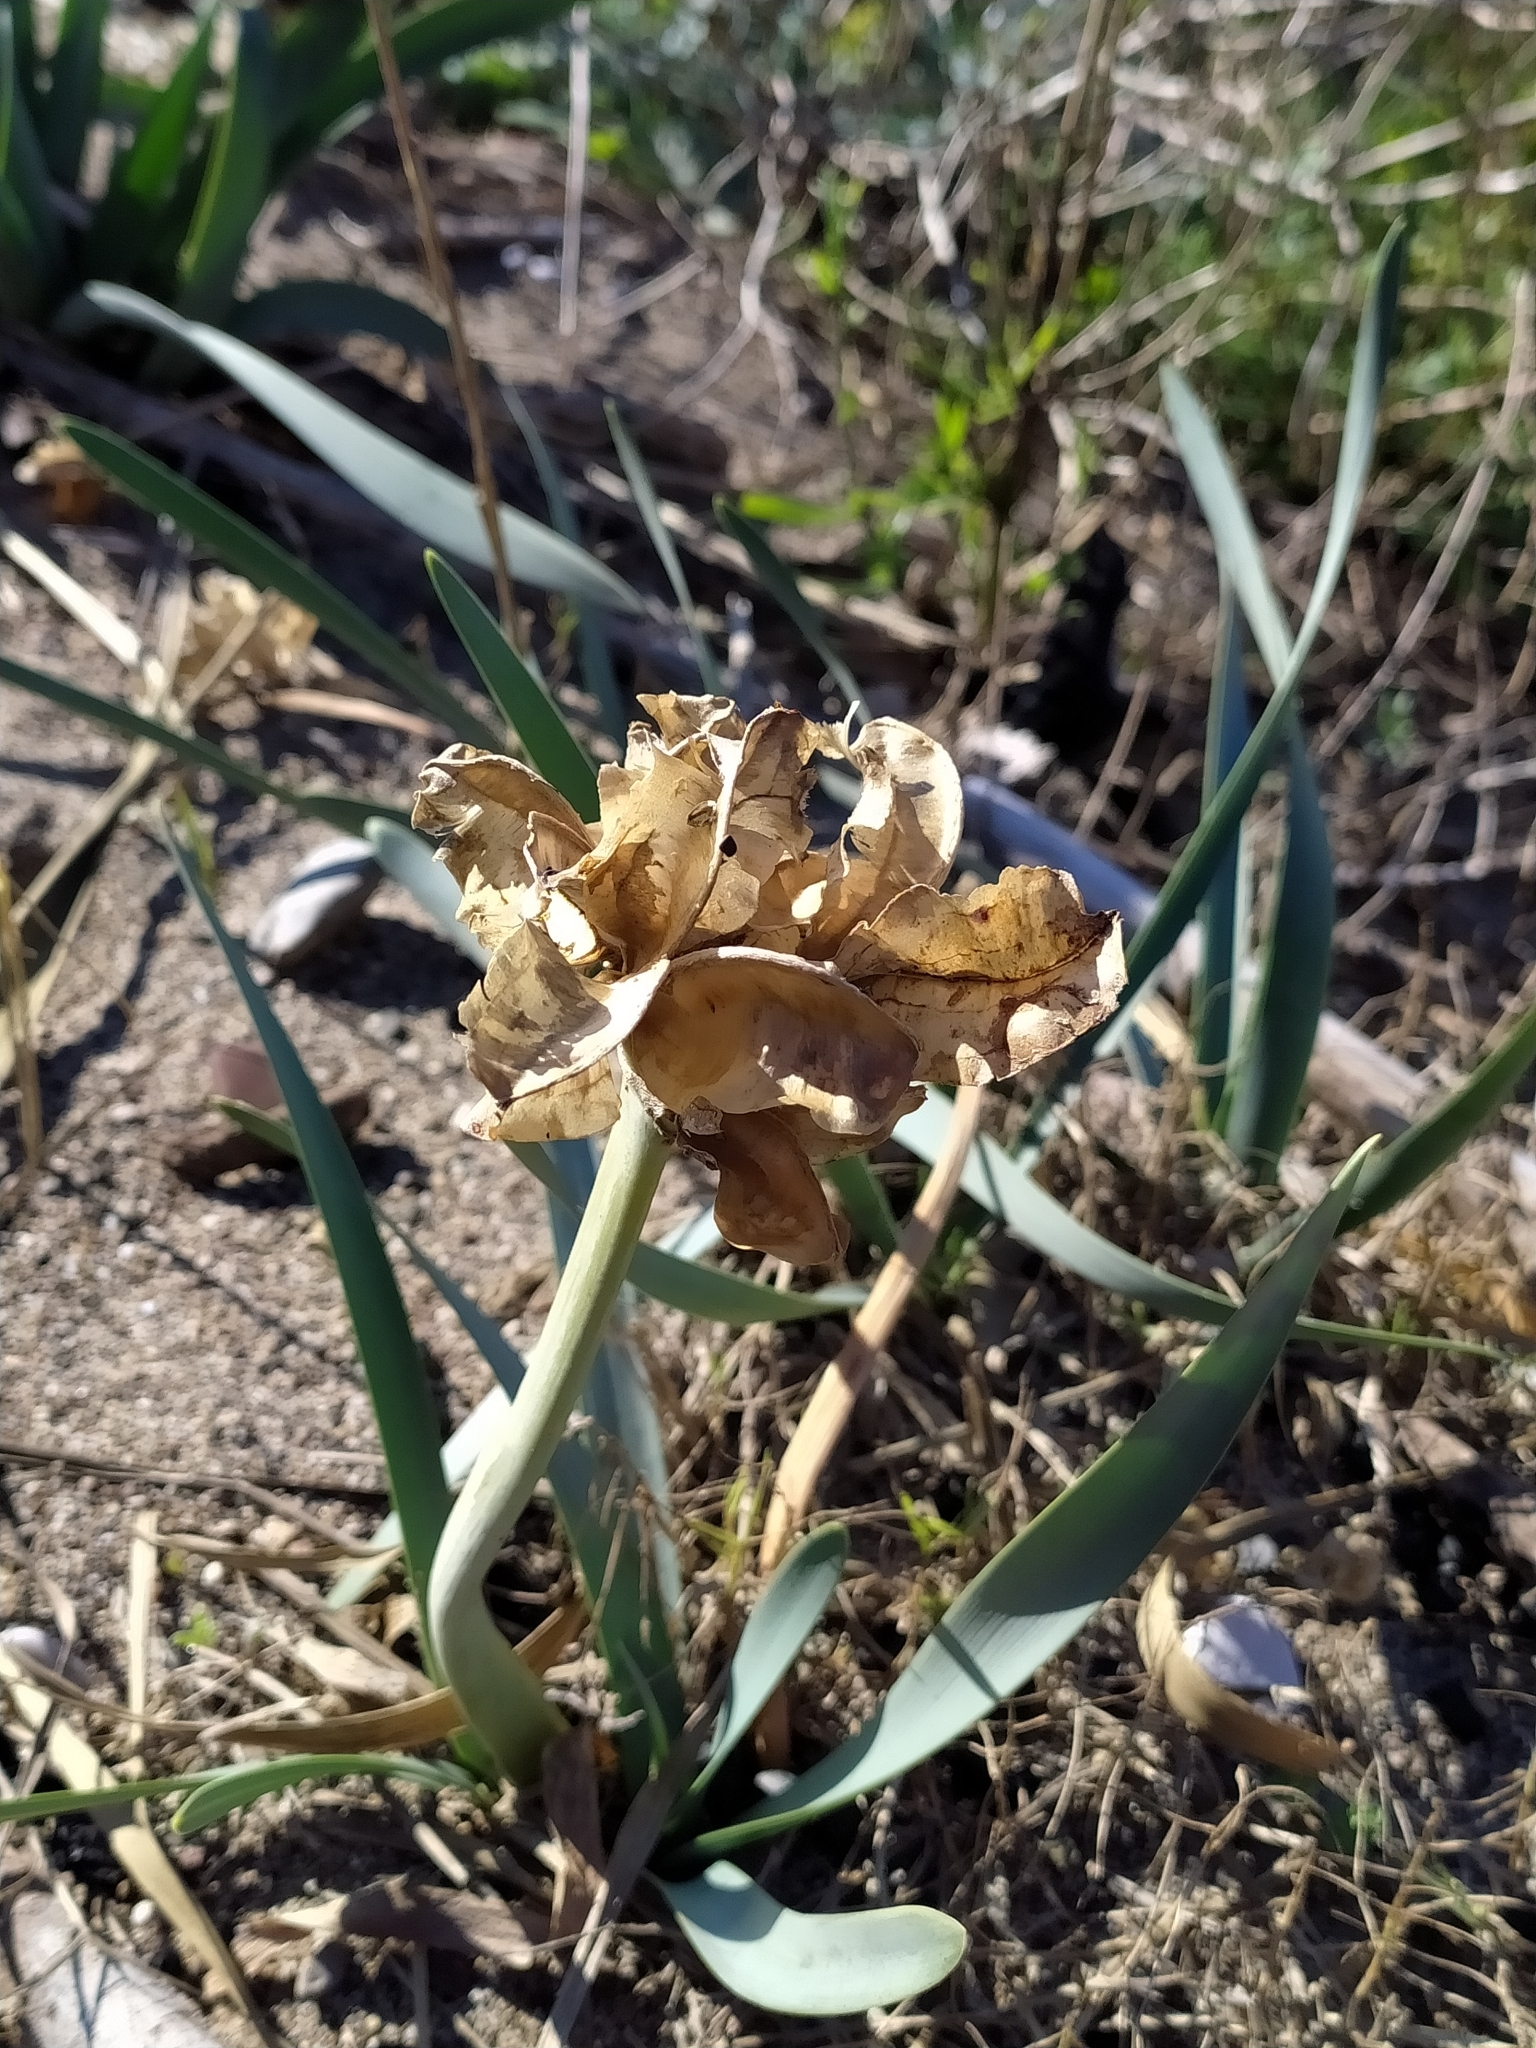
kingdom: Plantae
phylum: Tracheophyta
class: Liliopsida
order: Asparagales
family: Amaryllidaceae
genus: Pancratium
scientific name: Pancratium maritimum
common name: Sea-daffodil
